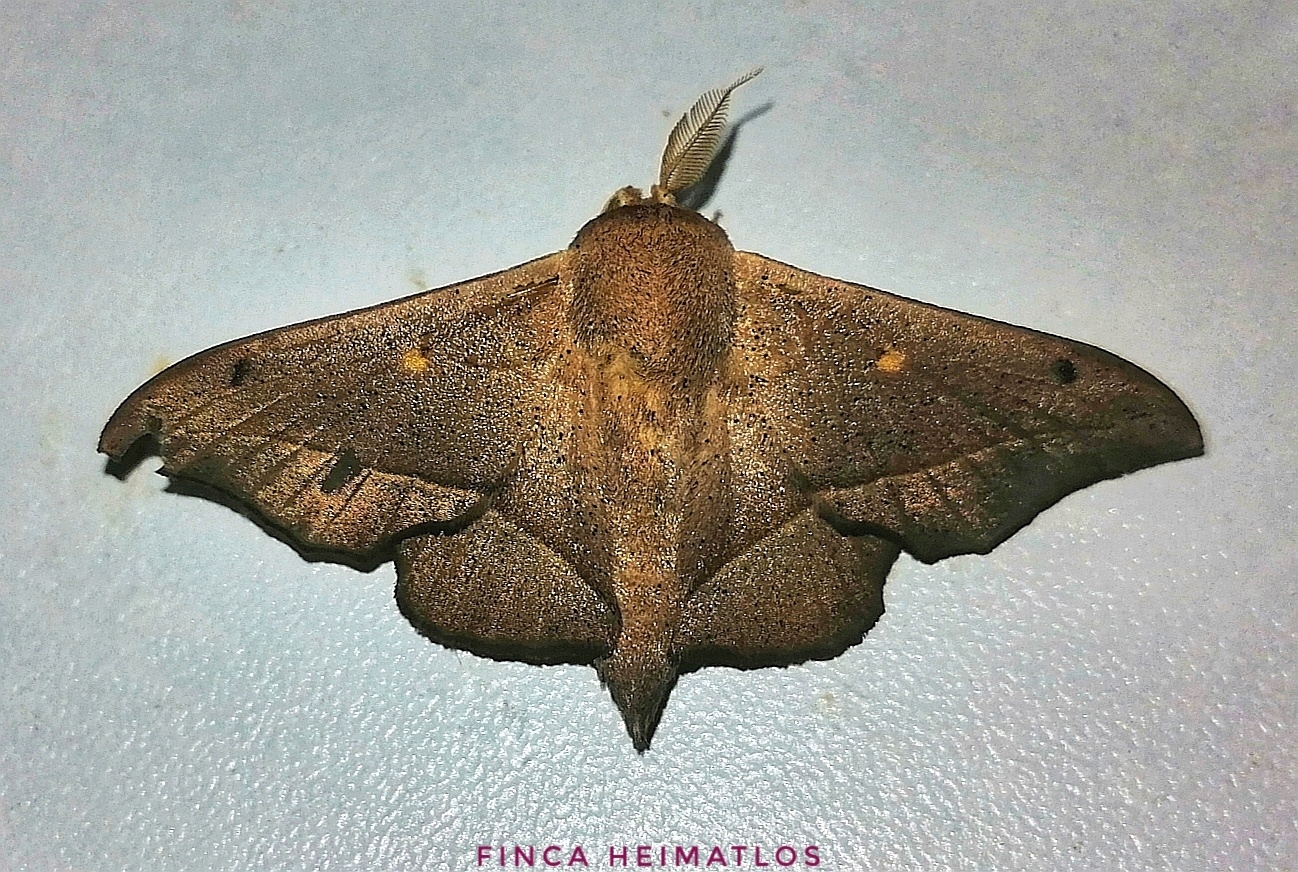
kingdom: Animalia
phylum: Arthropoda
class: Insecta
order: Lepidoptera
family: Mimallonidae
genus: Druentica
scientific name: Druentica partha
